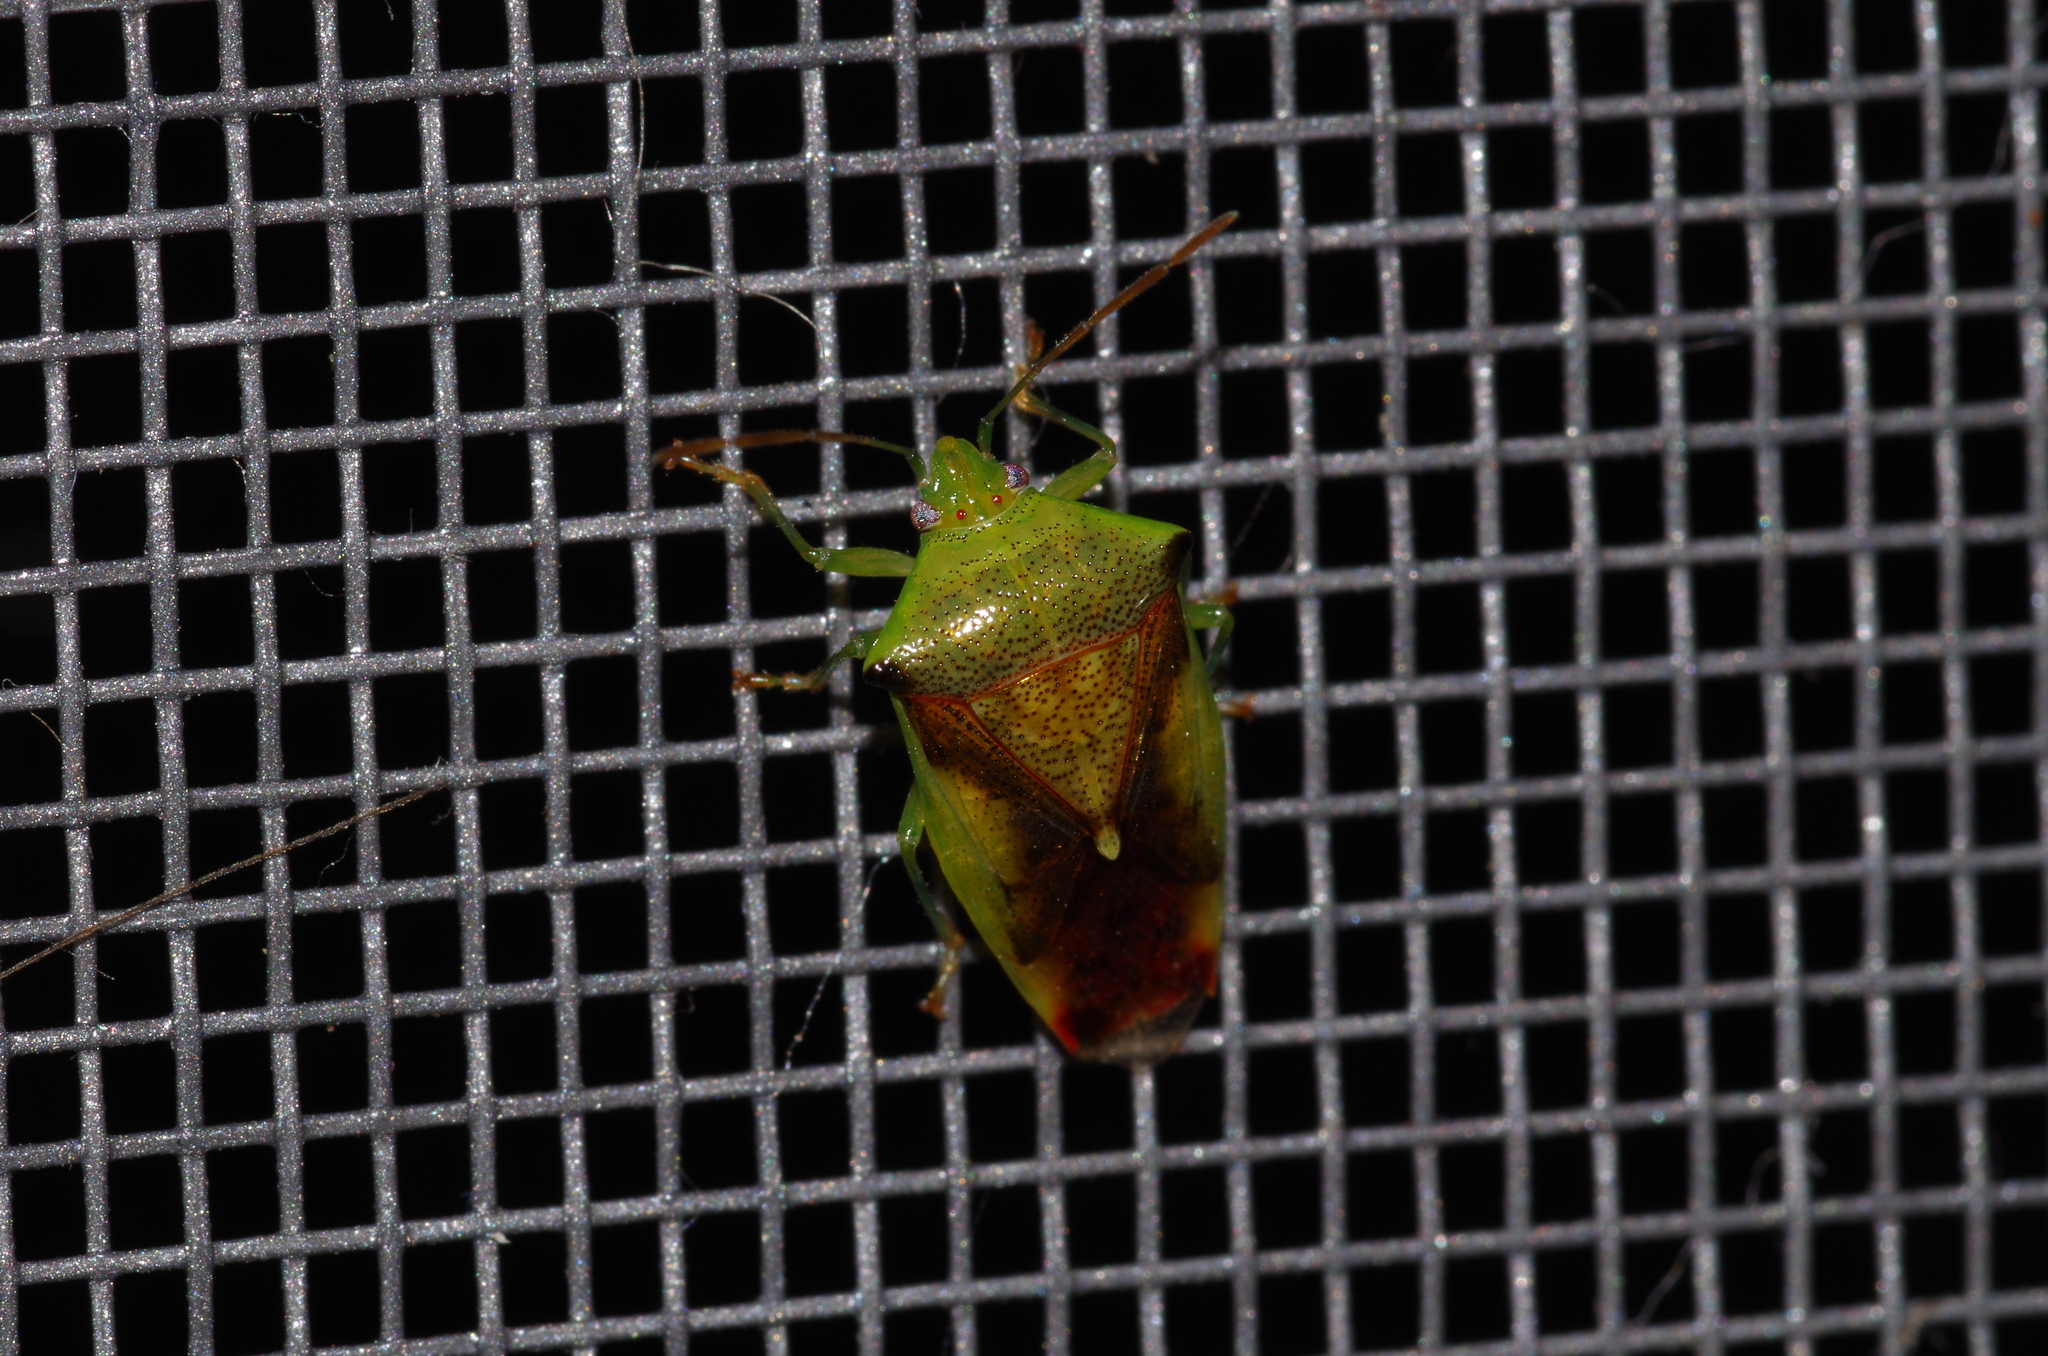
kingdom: Animalia
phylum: Arthropoda
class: Insecta
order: Hemiptera
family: Acanthosomatidae
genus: Elasmostethus
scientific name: Elasmostethus nubilus
